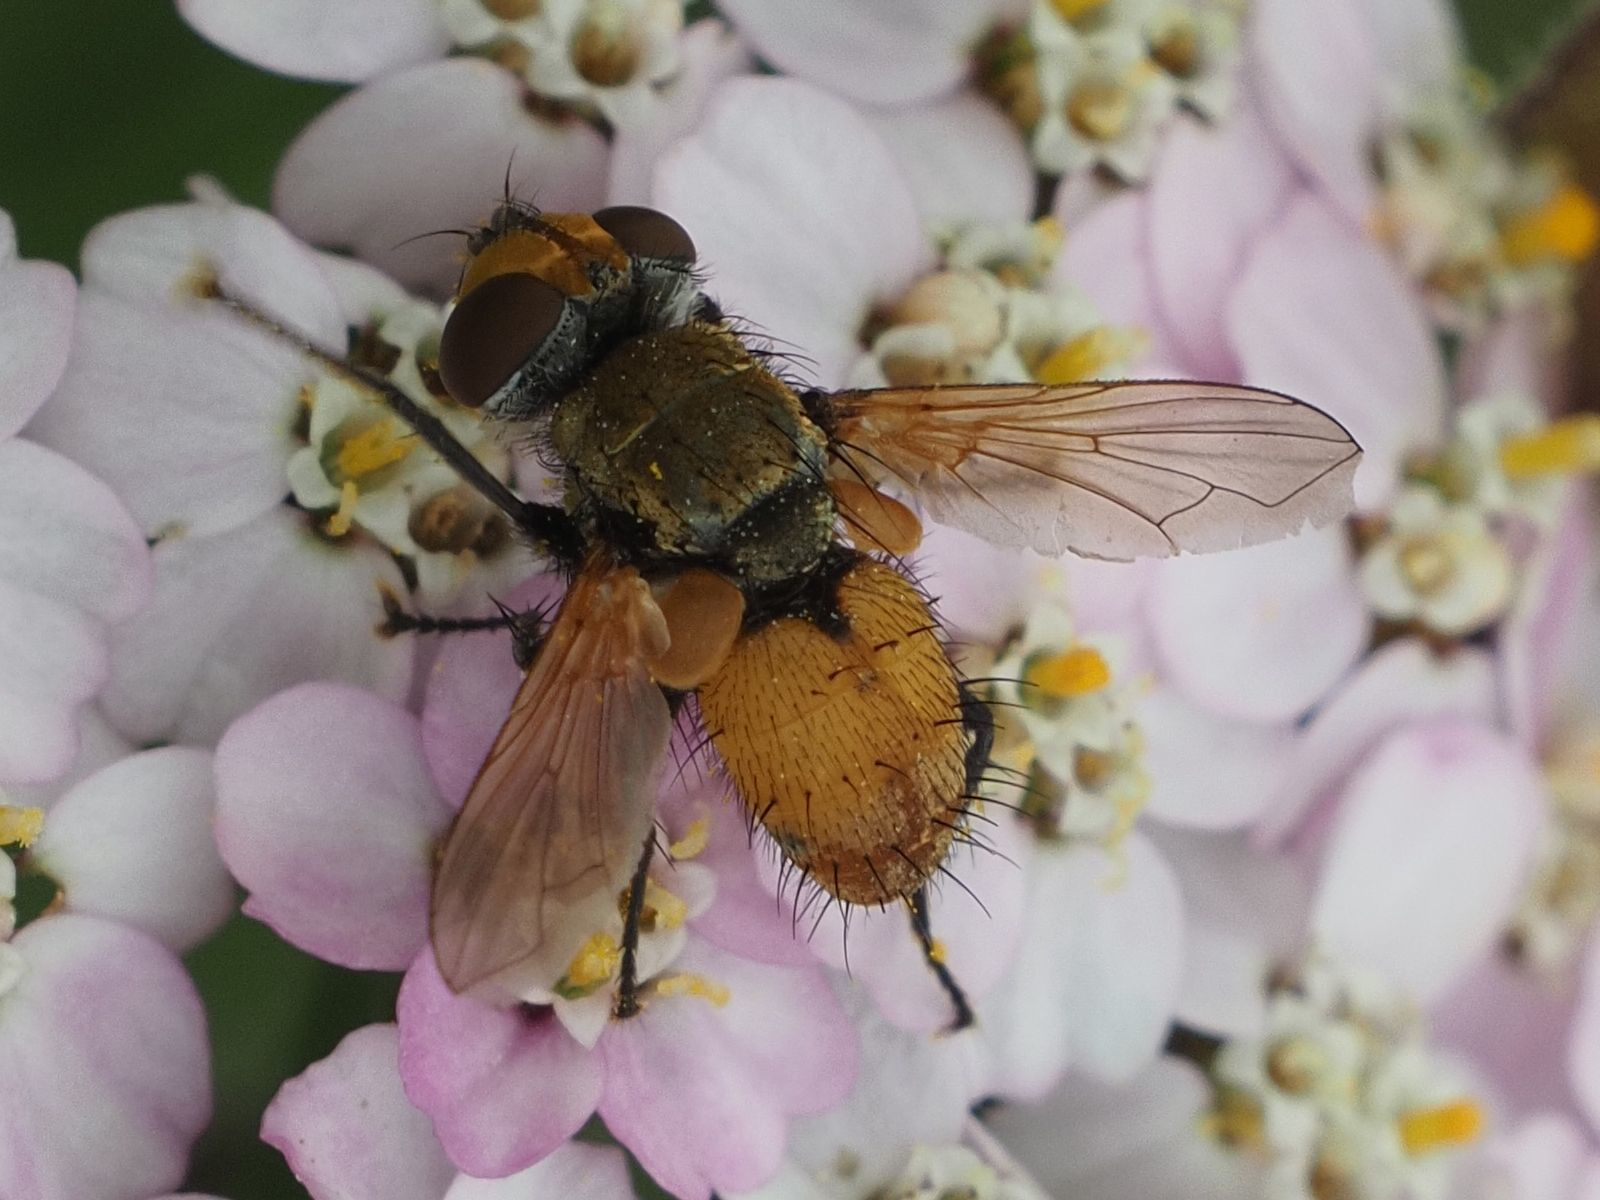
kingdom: Animalia
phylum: Arthropoda
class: Insecta
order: Diptera
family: Tachinidae
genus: Eliozeta
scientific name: Eliozeta helluo
